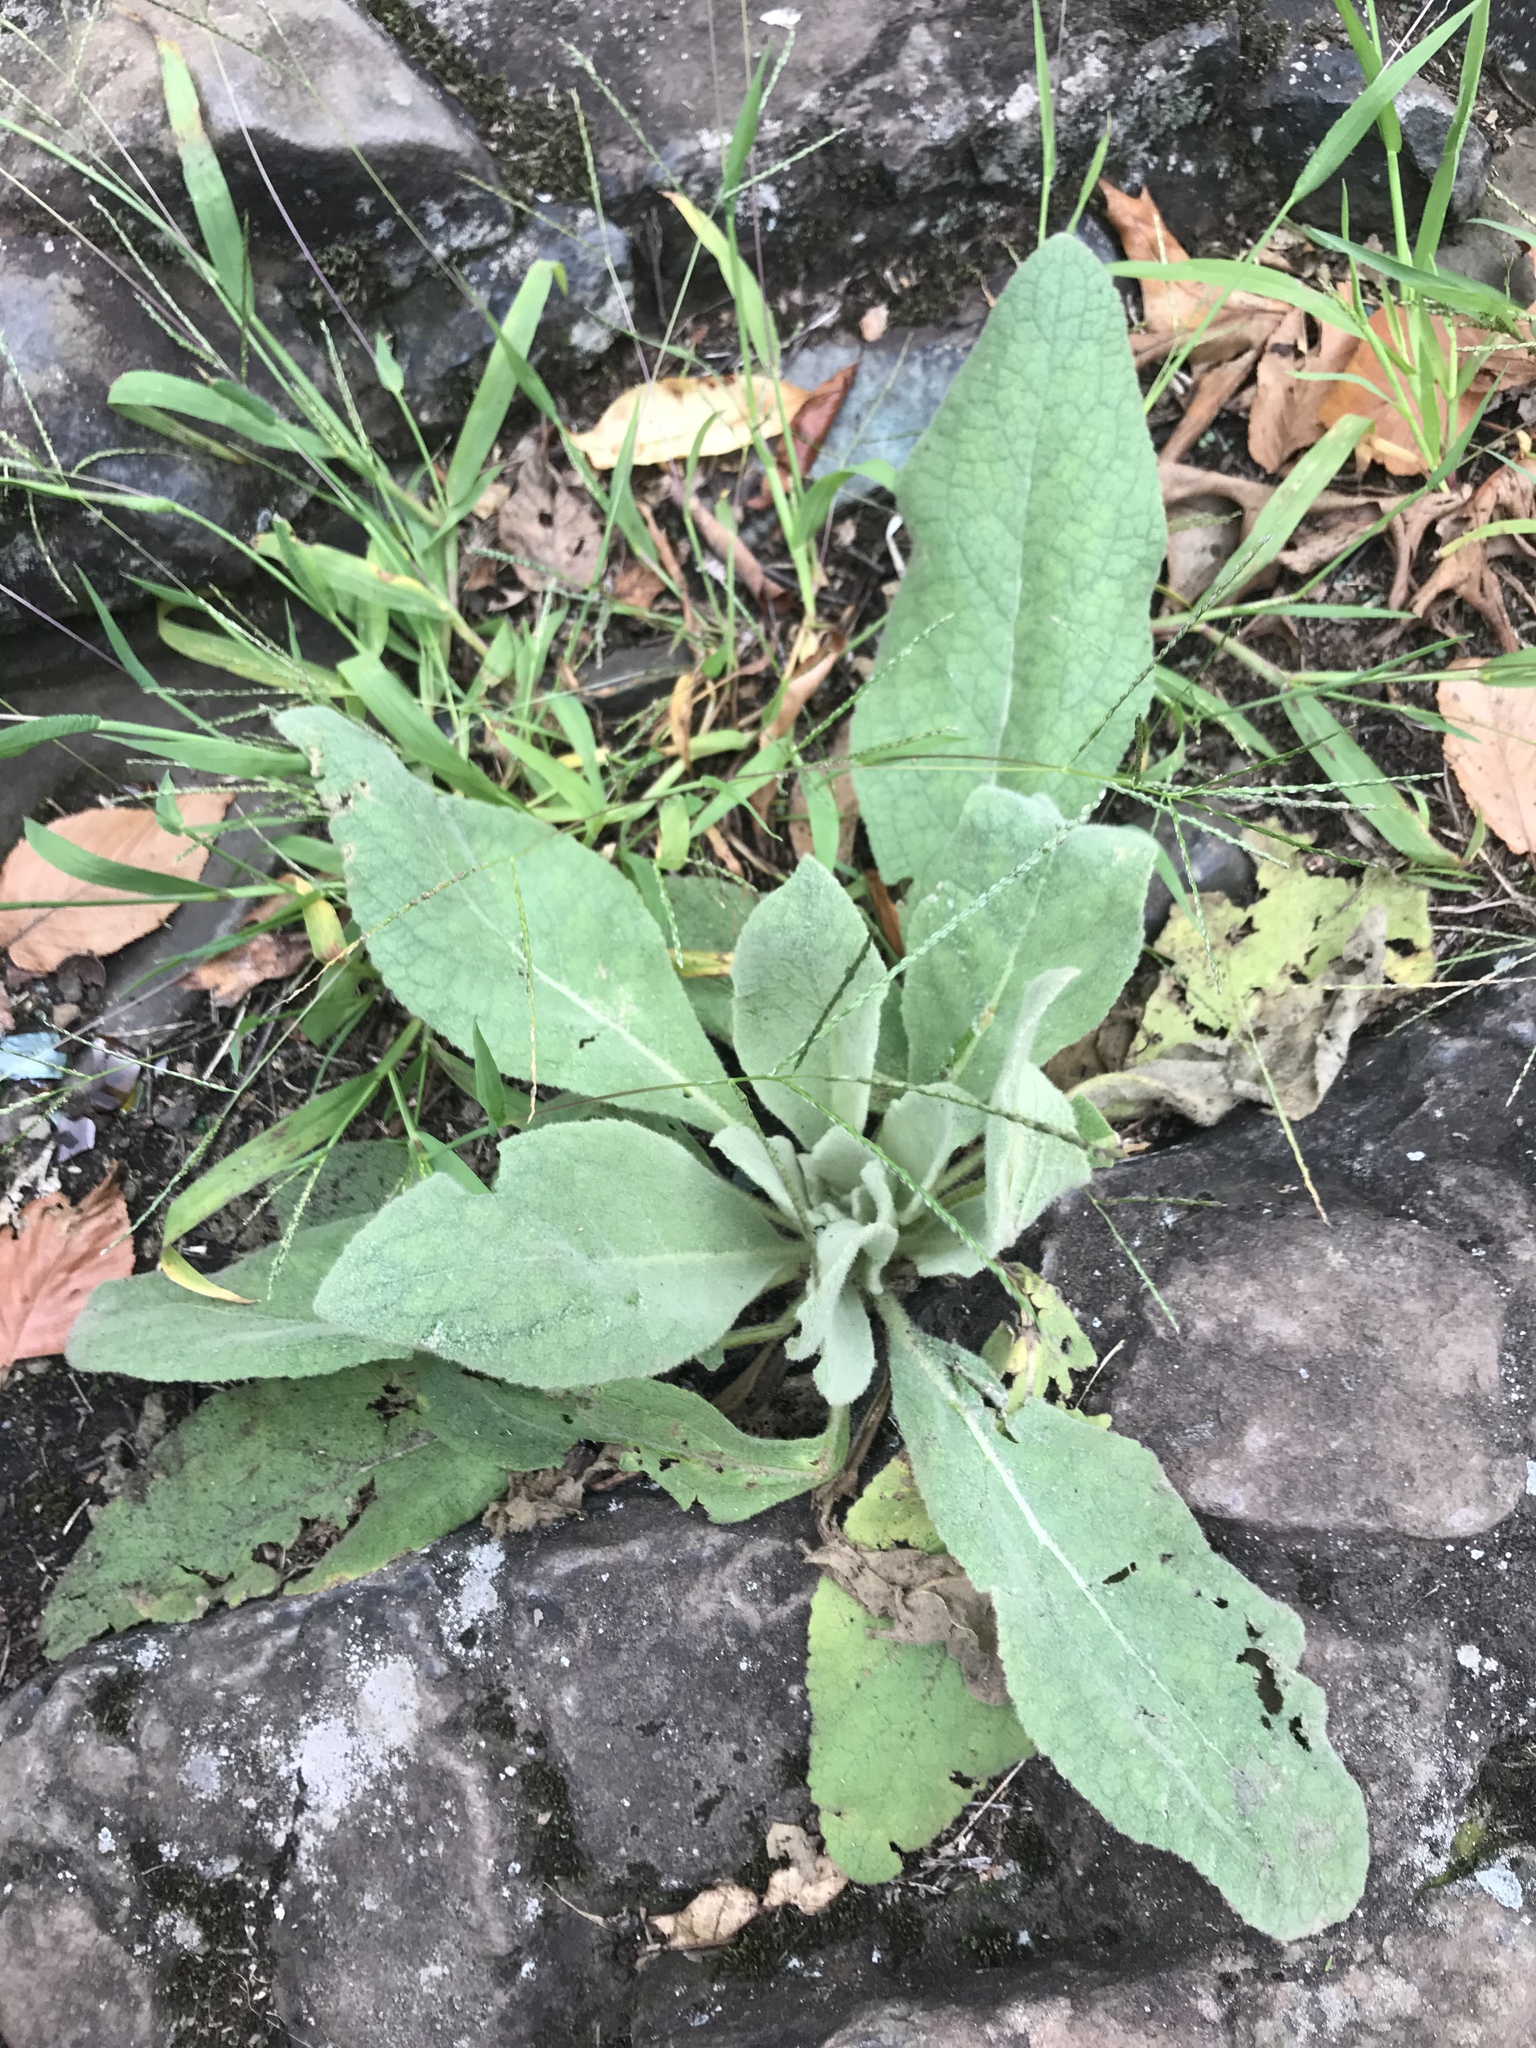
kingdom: Plantae
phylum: Tracheophyta
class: Magnoliopsida
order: Lamiales
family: Scrophulariaceae
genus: Verbascum
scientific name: Verbascum thapsus
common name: Common mullein
